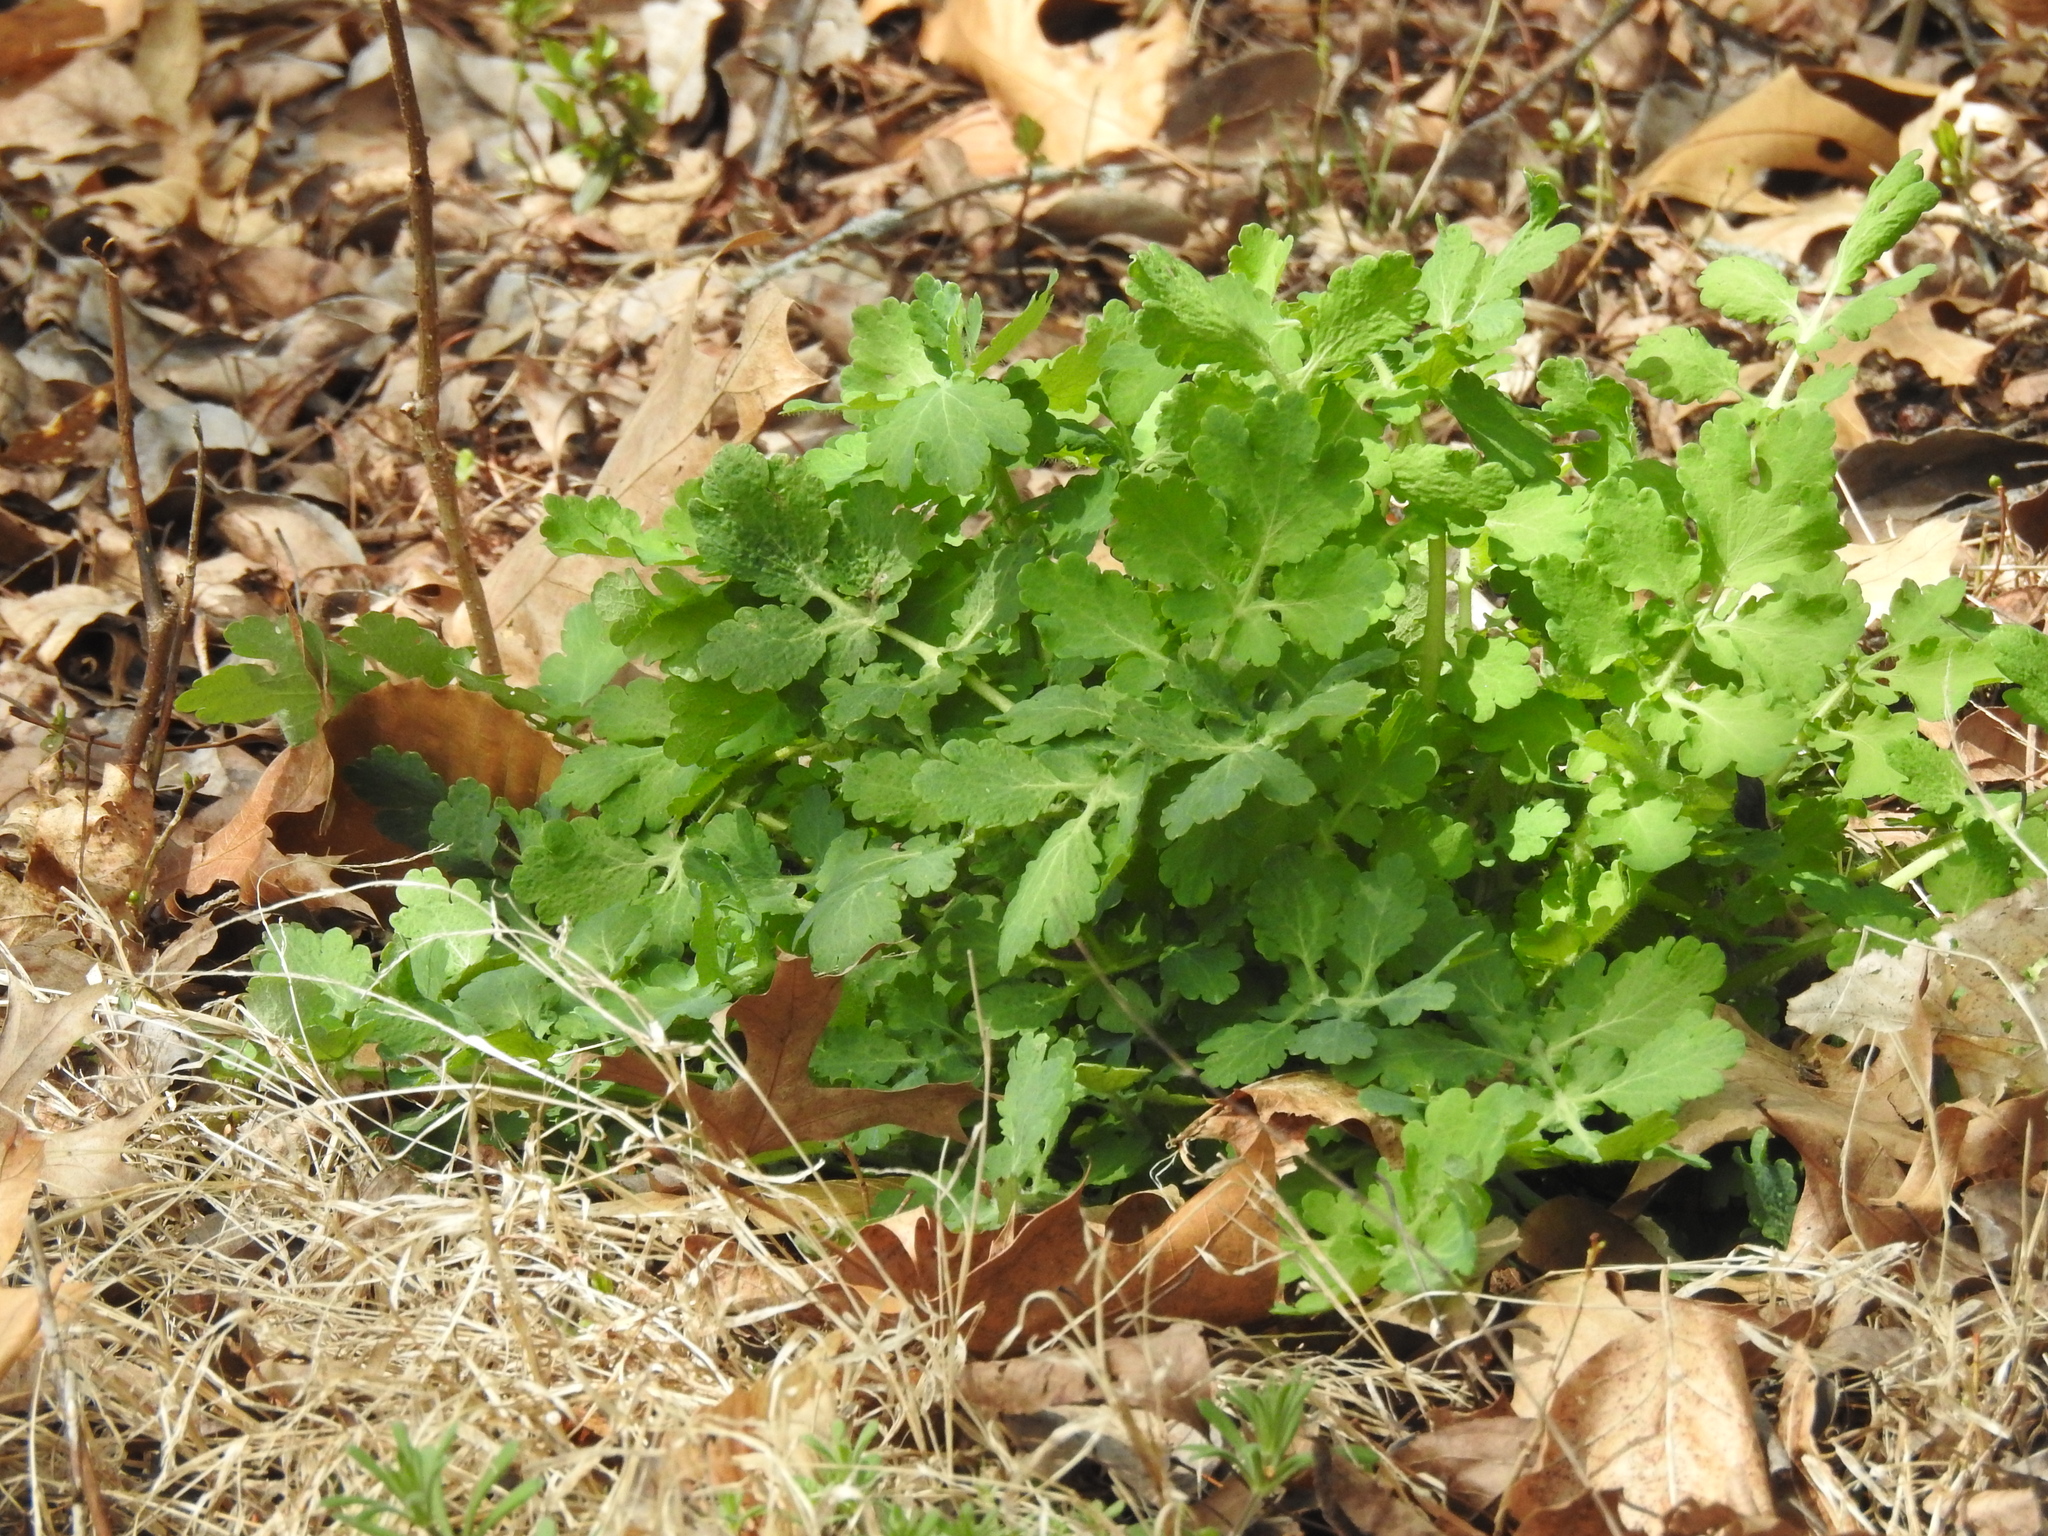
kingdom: Plantae
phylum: Tracheophyta
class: Magnoliopsida
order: Ranunculales
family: Papaveraceae
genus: Chelidonium
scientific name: Chelidonium majus
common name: Greater celandine
